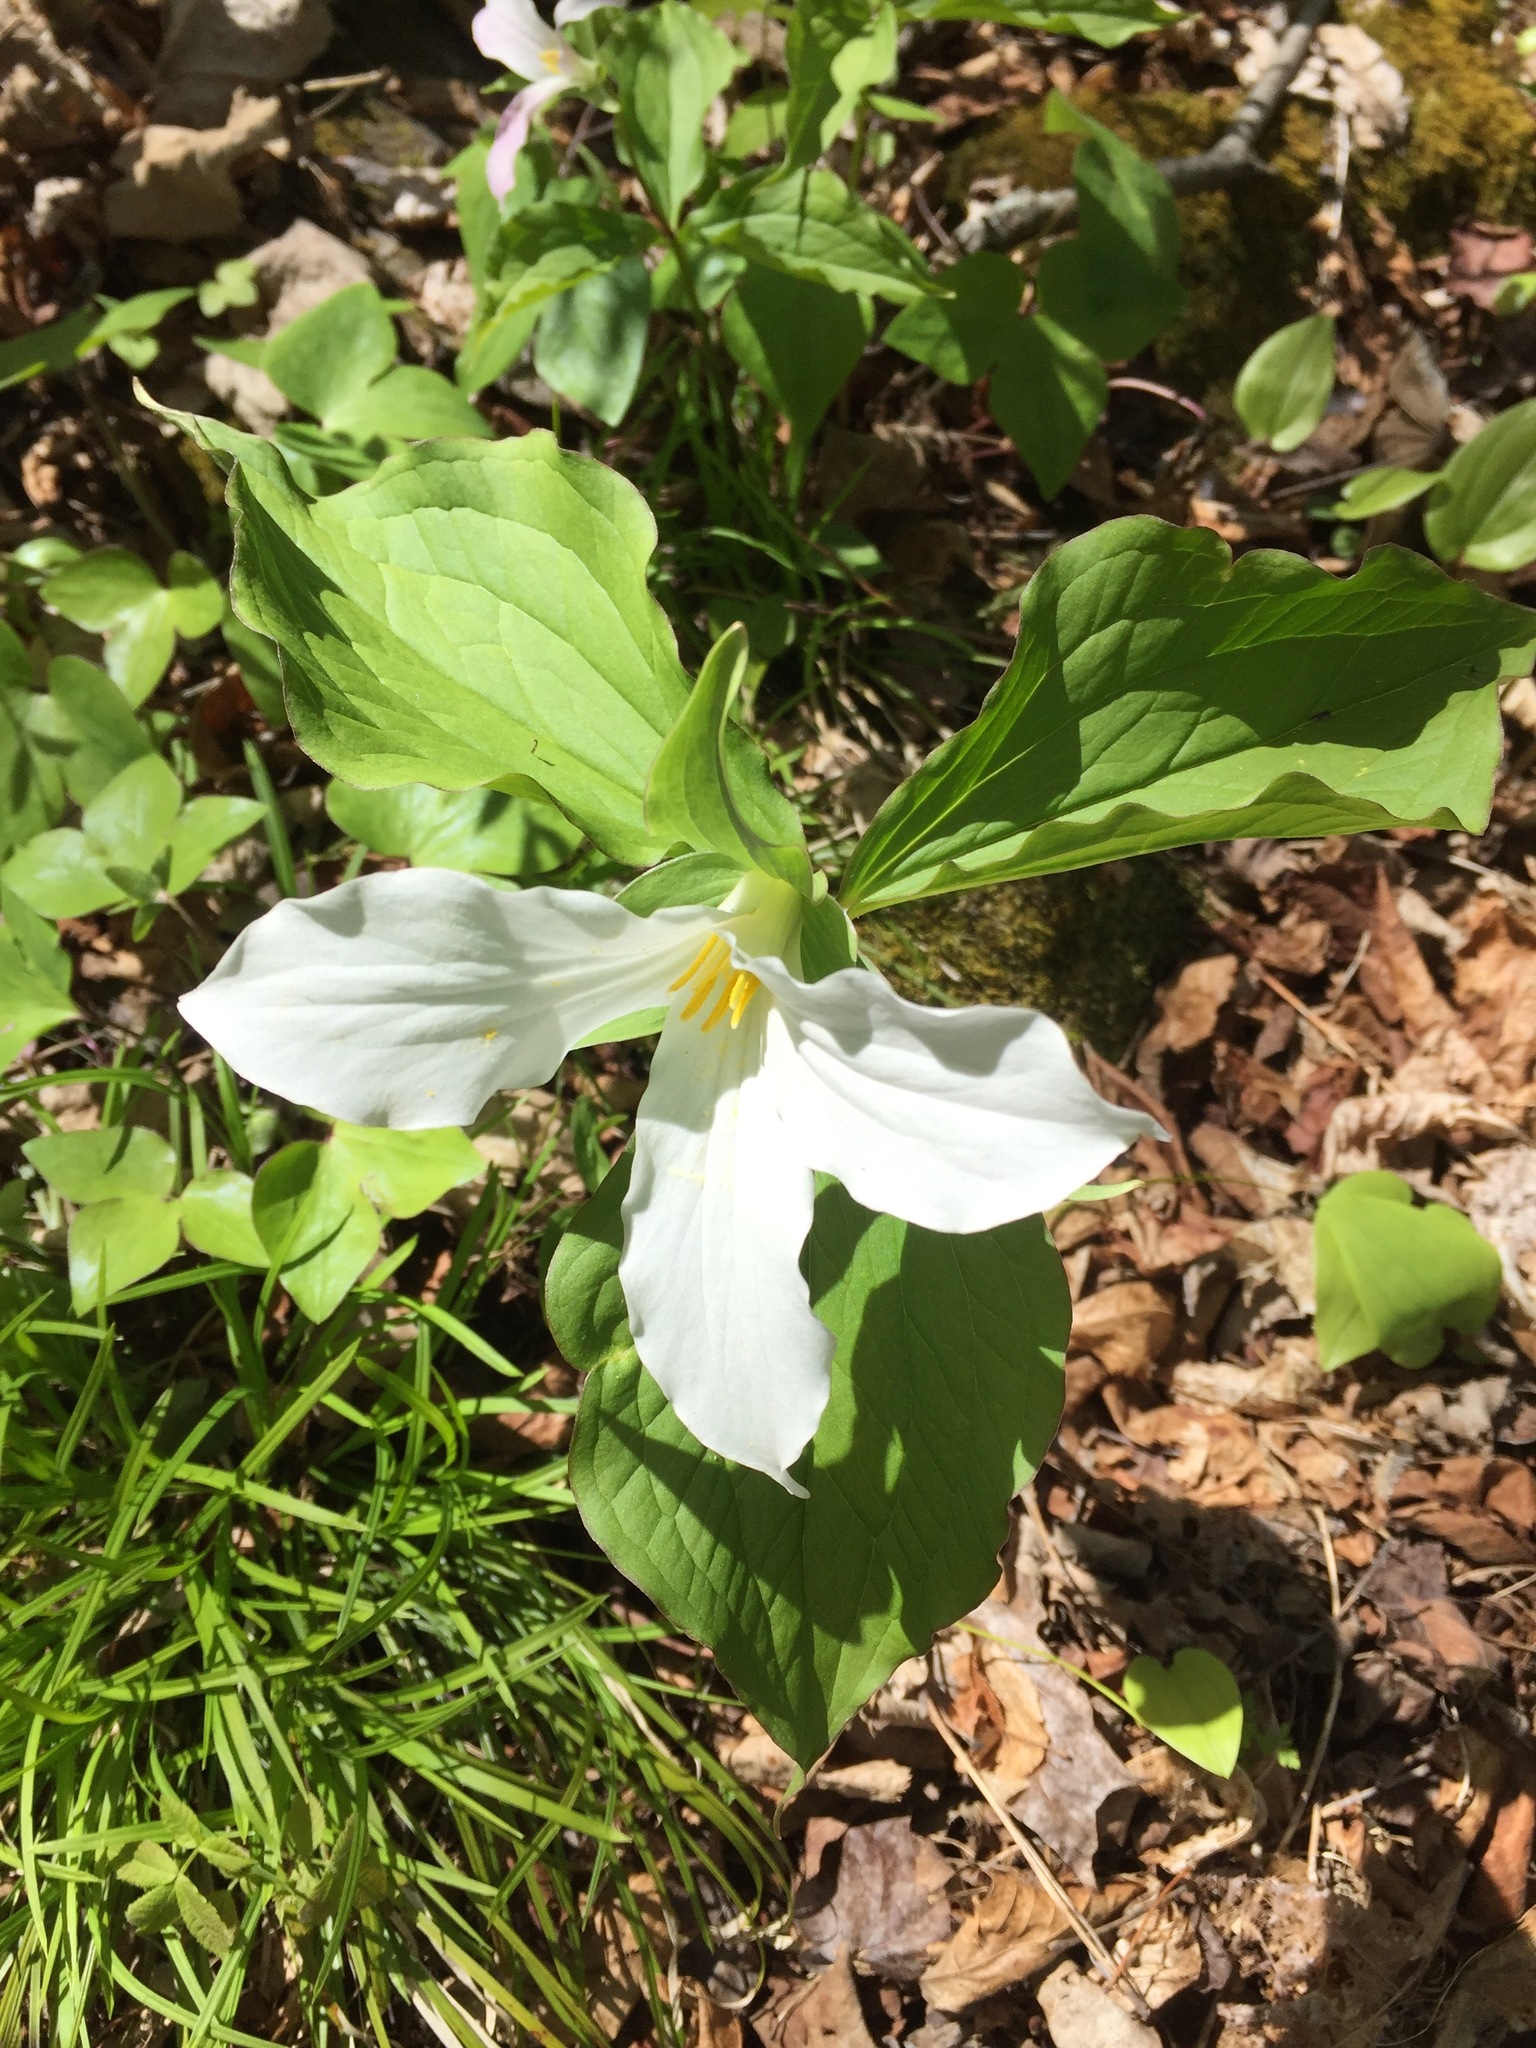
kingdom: Plantae
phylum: Tracheophyta
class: Liliopsida
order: Liliales
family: Melanthiaceae
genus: Trillium
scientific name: Trillium grandiflorum
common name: Great white trillium
